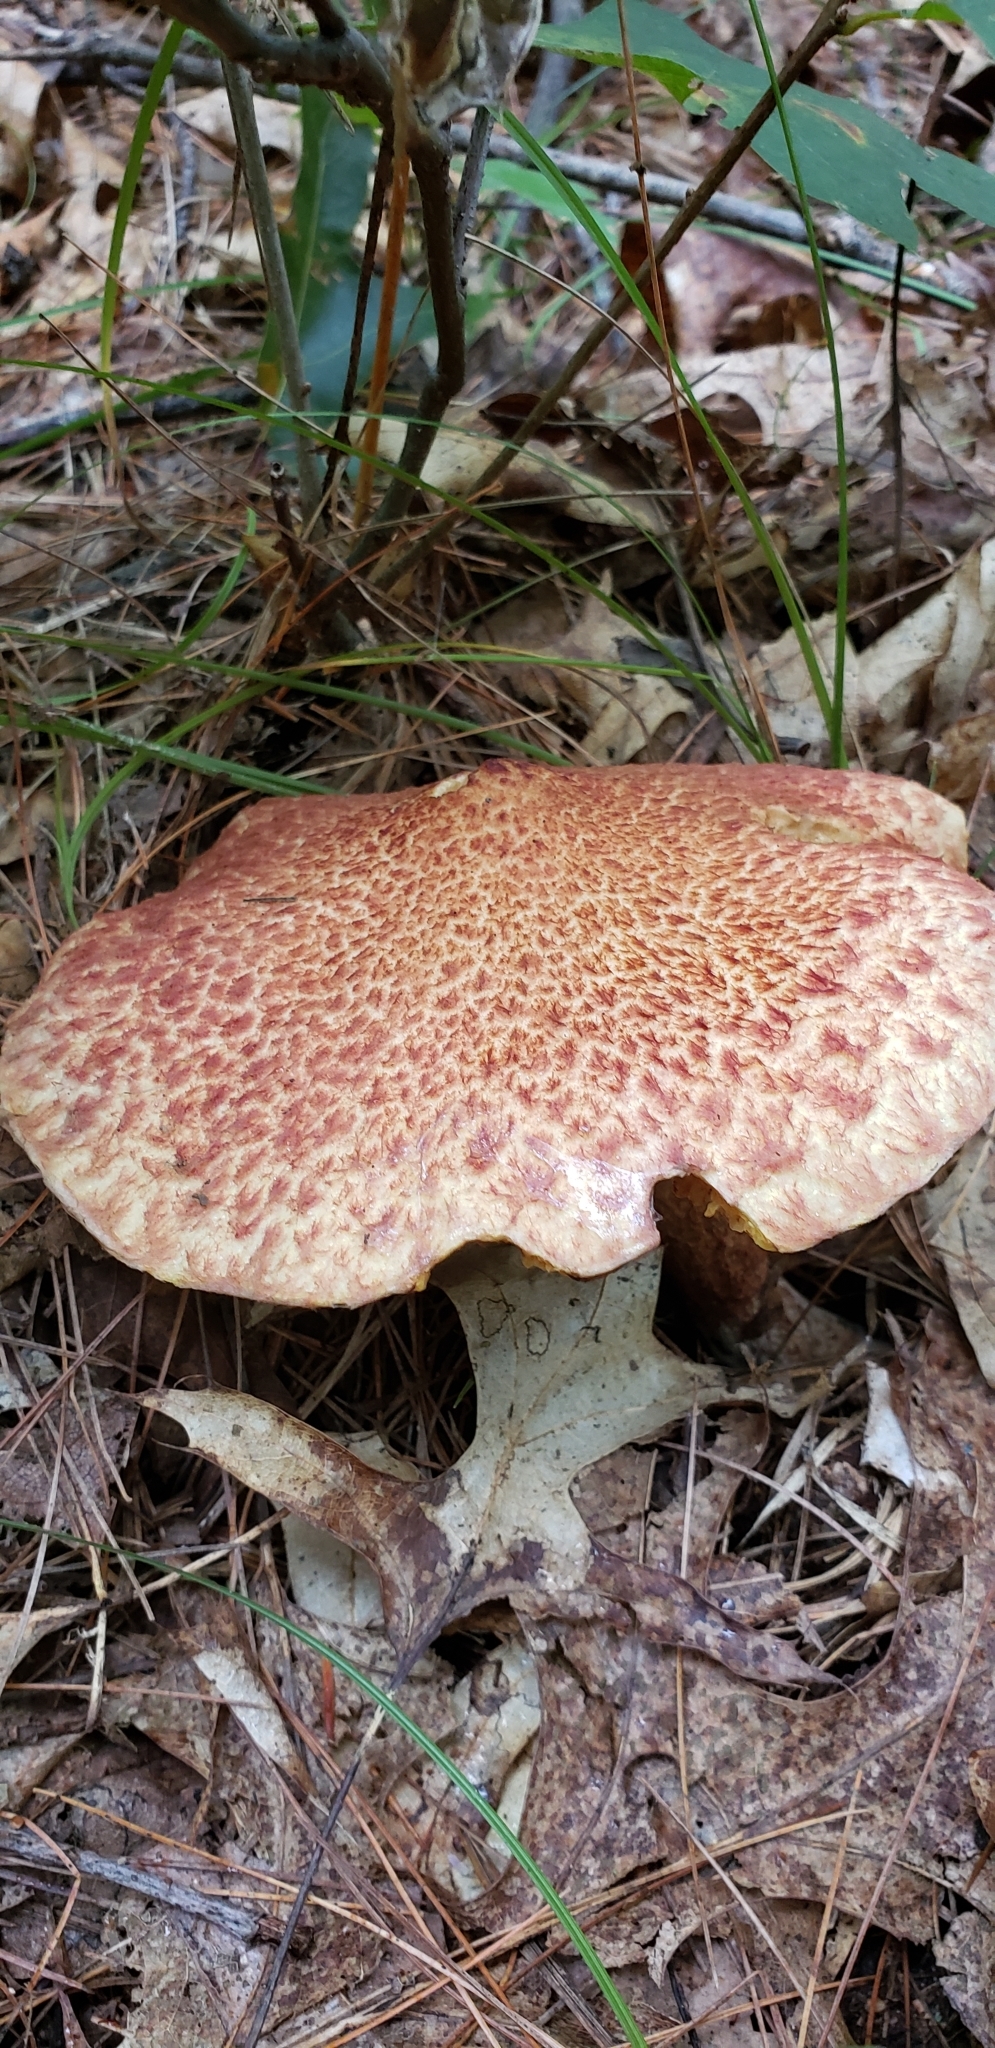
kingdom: Fungi
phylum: Basidiomycota
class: Agaricomycetes
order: Boletales
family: Suillaceae
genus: Suillus
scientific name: Suillus spraguei
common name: Painted suillus
